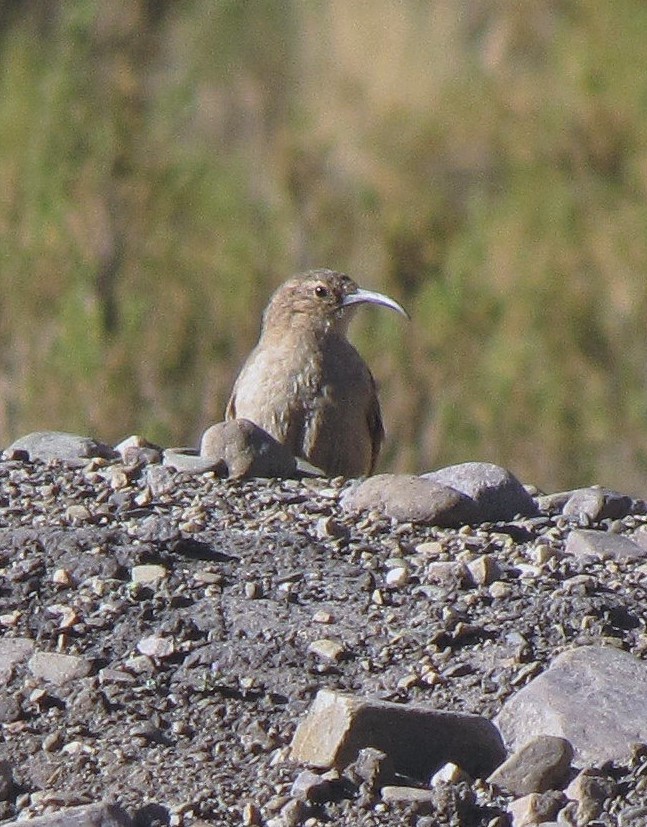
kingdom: Animalia
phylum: Chordata
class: Aves
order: Passeriformes
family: Furnariidae
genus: Upucerthia
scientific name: Upucerthia validirostris
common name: Buff-breasted earthcreeper
